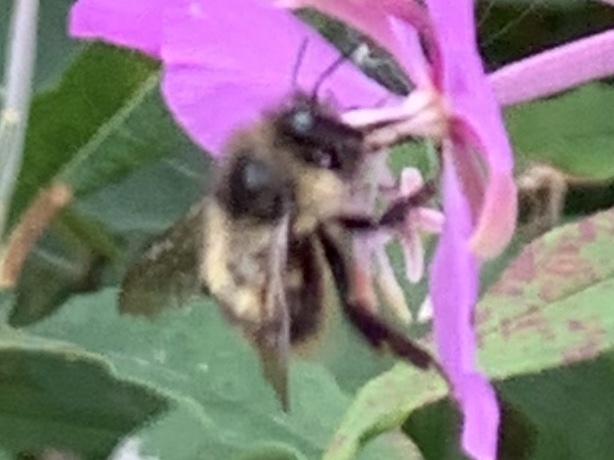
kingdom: Animalia
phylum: Arthropoda
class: Insecta
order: Hymenoptera
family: Apidae
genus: Bombus
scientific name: Bombus mixtus
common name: Fuzzy-horned bumble bee
